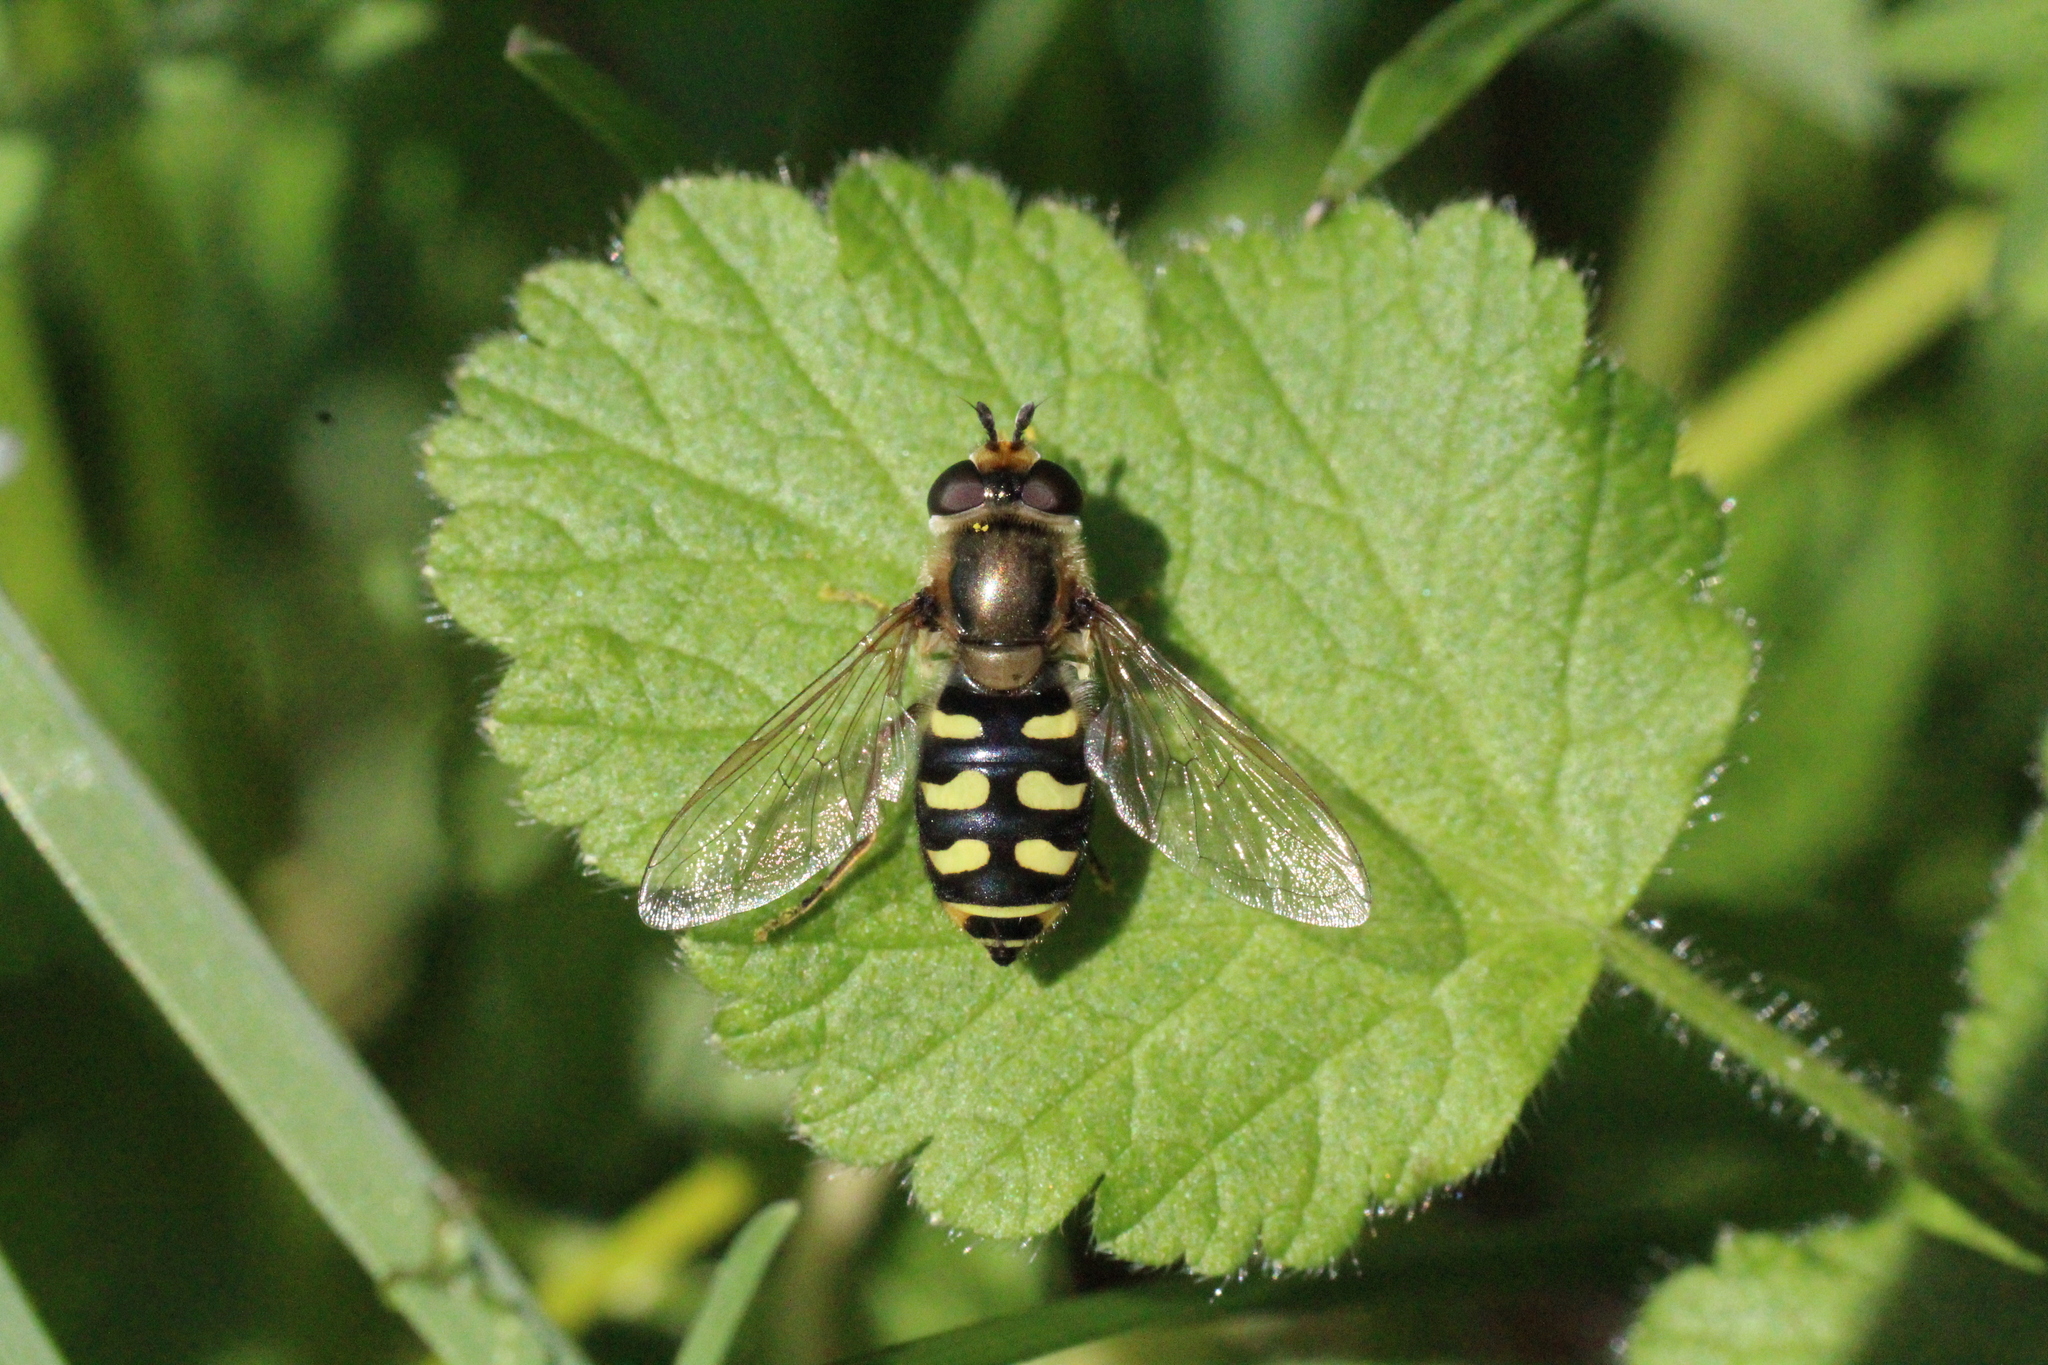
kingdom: Animalia
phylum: Arthropoda
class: Insecta
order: Diptera
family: Syrphidae
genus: Eupeodes
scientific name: Eupeodes corollae
